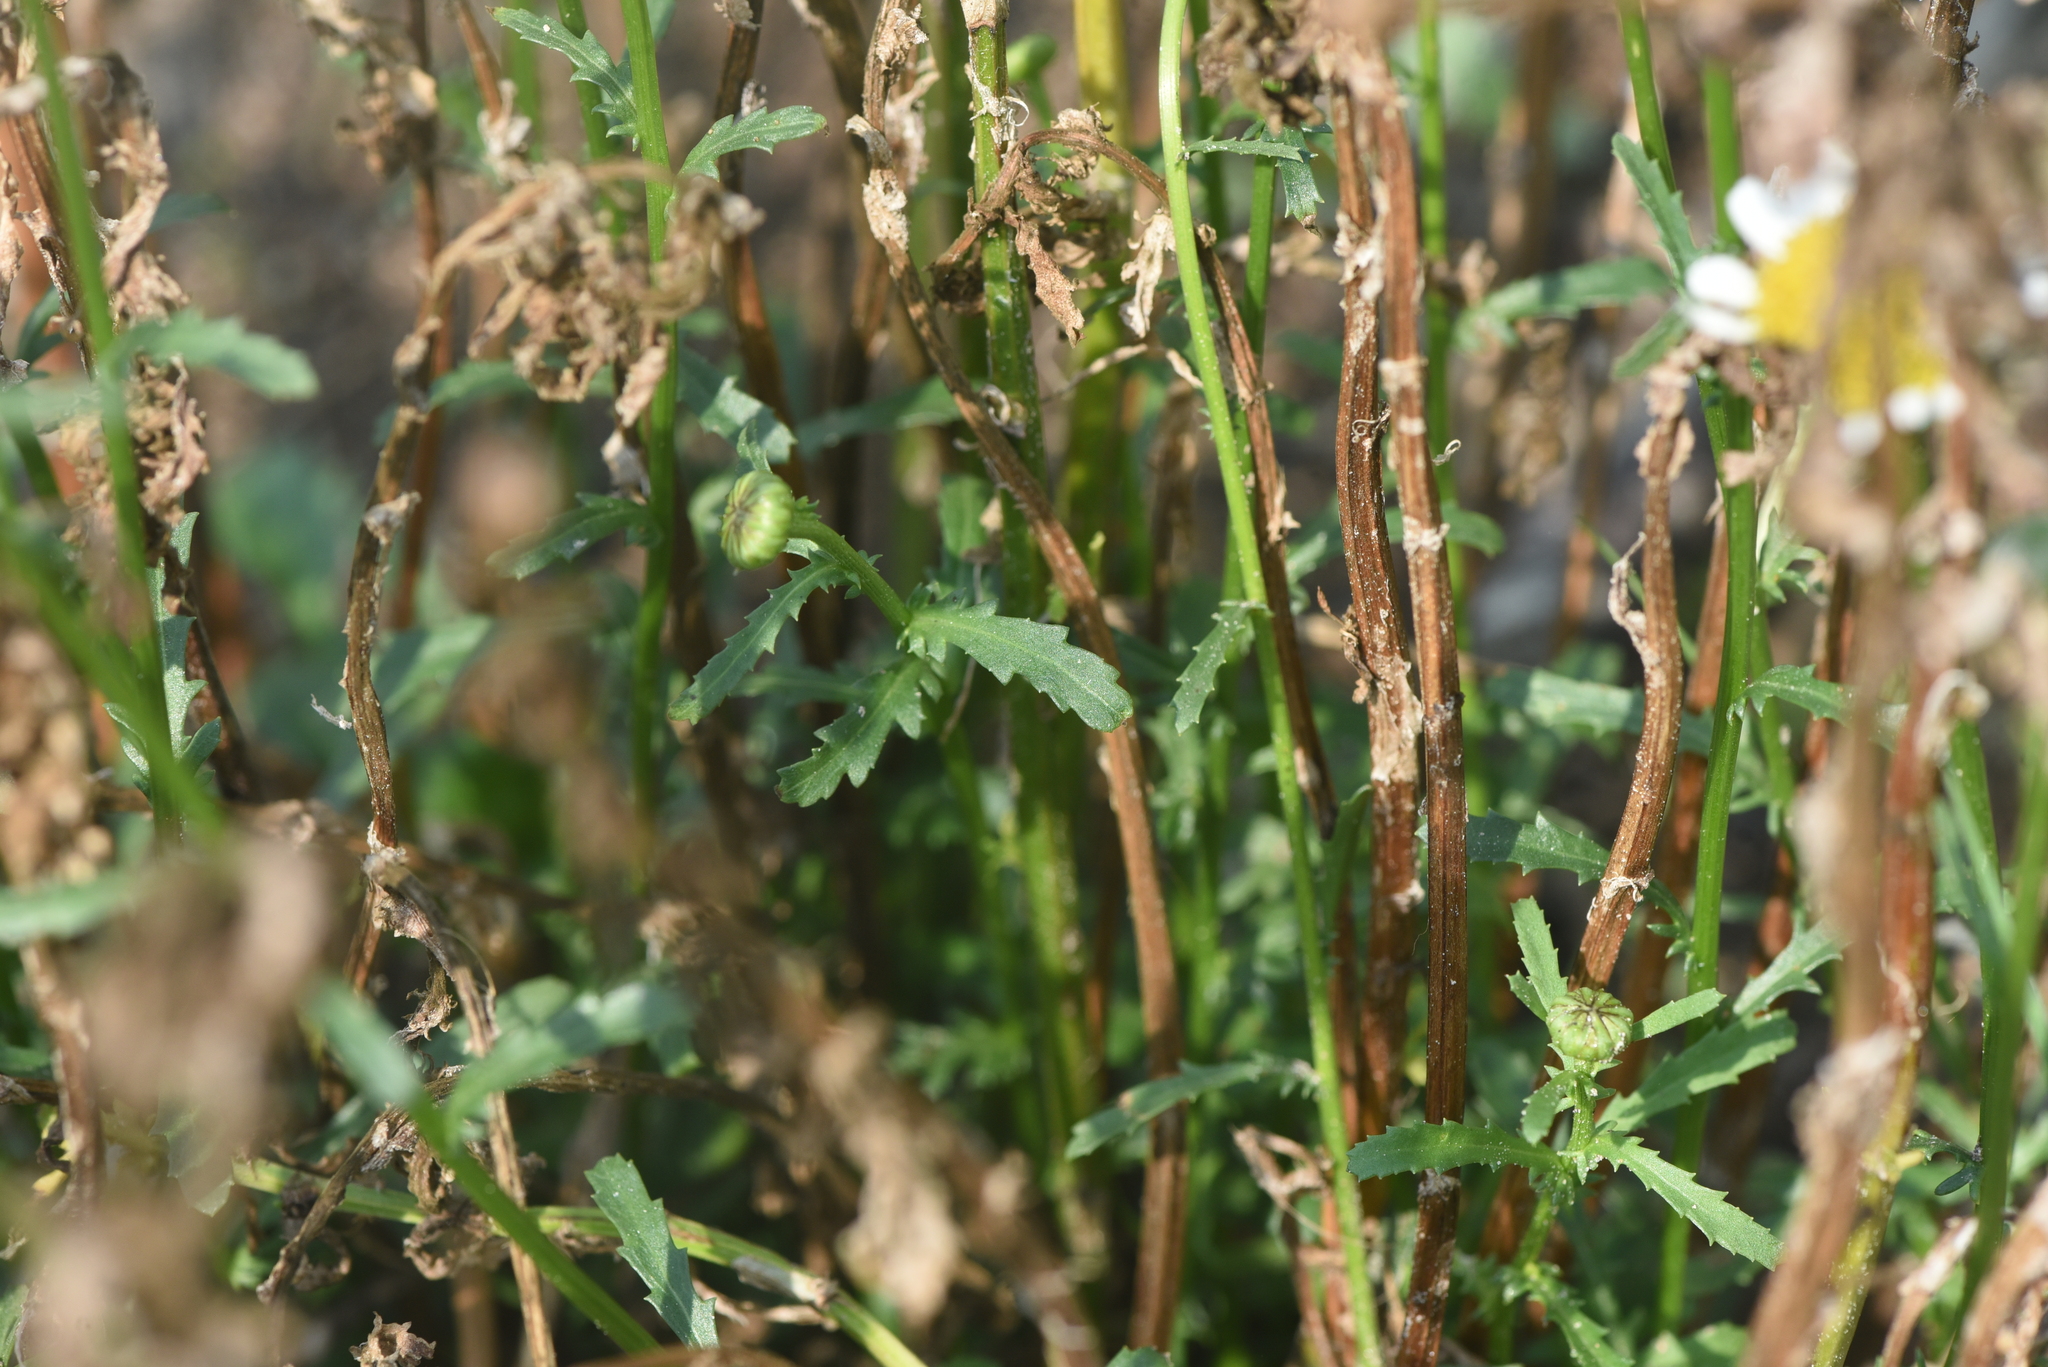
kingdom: Plantae
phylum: Tracheophyta
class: Magnoliopsida
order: Asterales
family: Asteraceae
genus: Leucanthemum
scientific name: Leucanthemum vulgare
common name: Oxeye daisy
